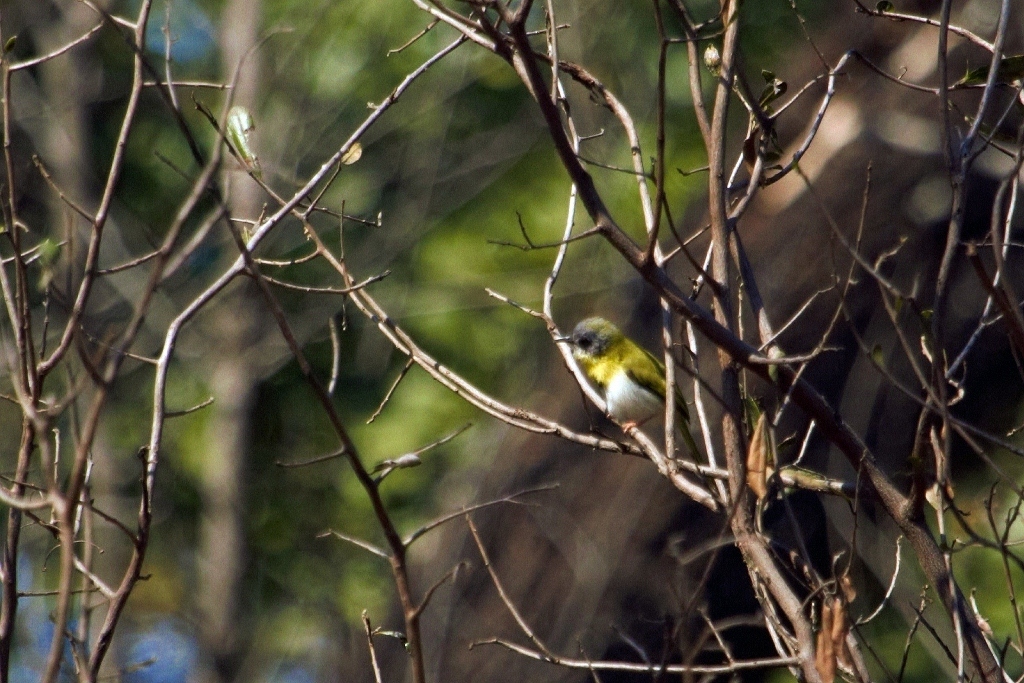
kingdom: Animalia
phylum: Chordata
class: Aves
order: Passeriformes
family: Cisticolidae
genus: Apalis
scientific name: Apalis flavida
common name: Yellow-breasted apalis
